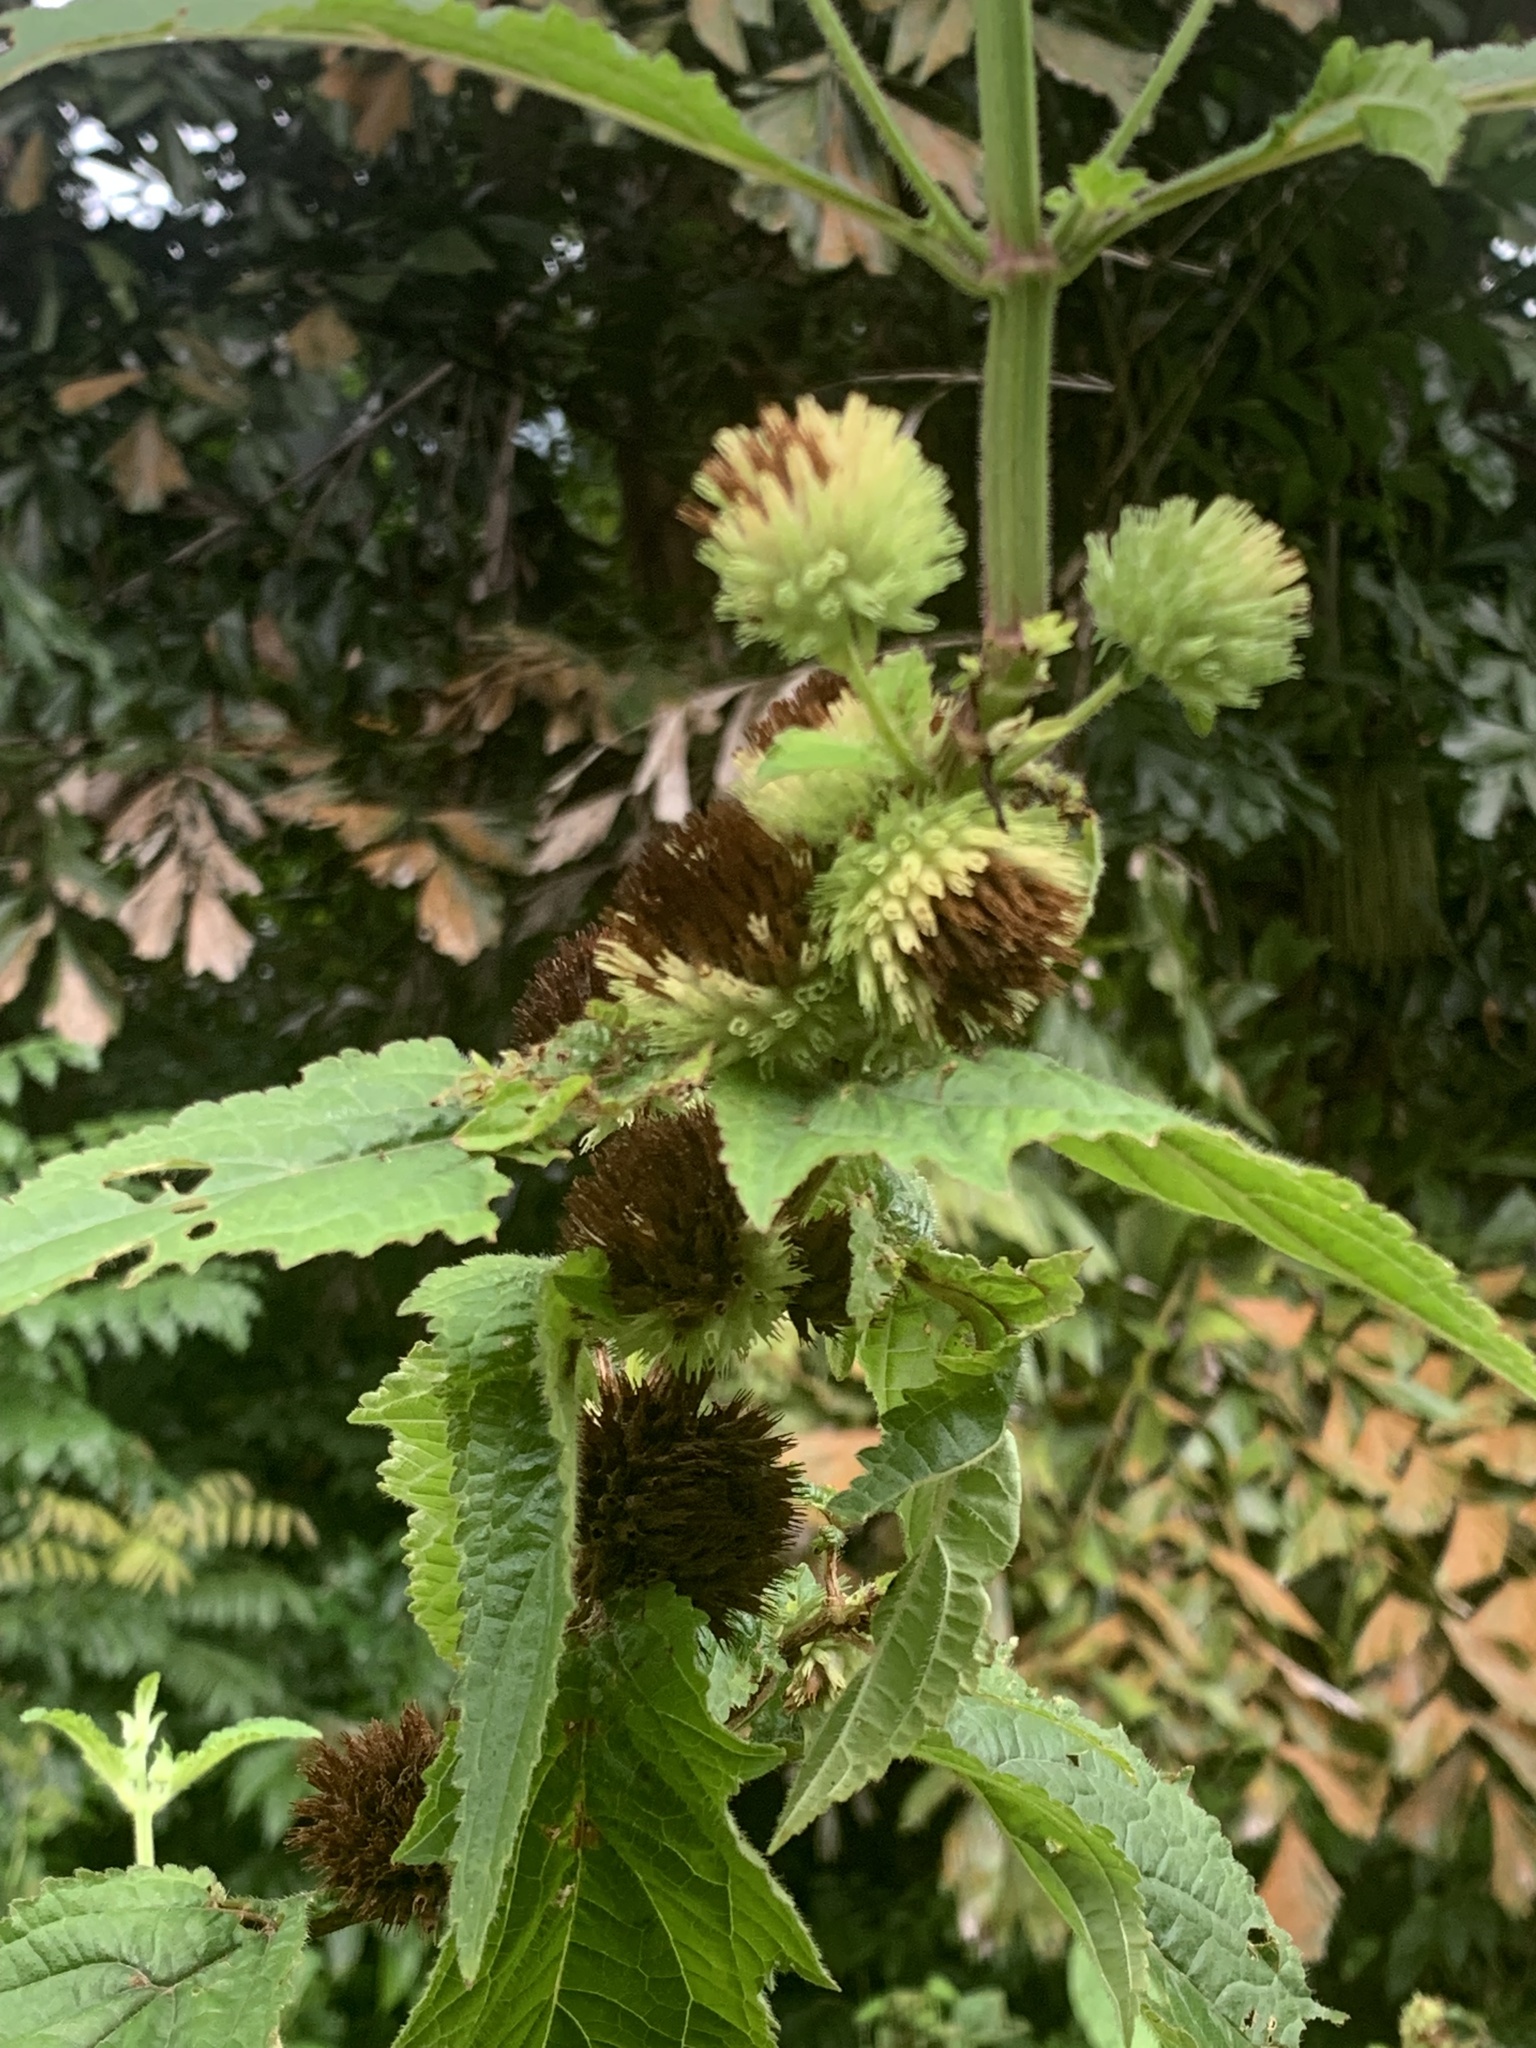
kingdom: Plantae
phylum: Tracheophyta
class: Magnoliopsida
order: Lamiales
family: Lamiaceae
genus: Hyptis
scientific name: Hyptis capitata
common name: False ironwort
